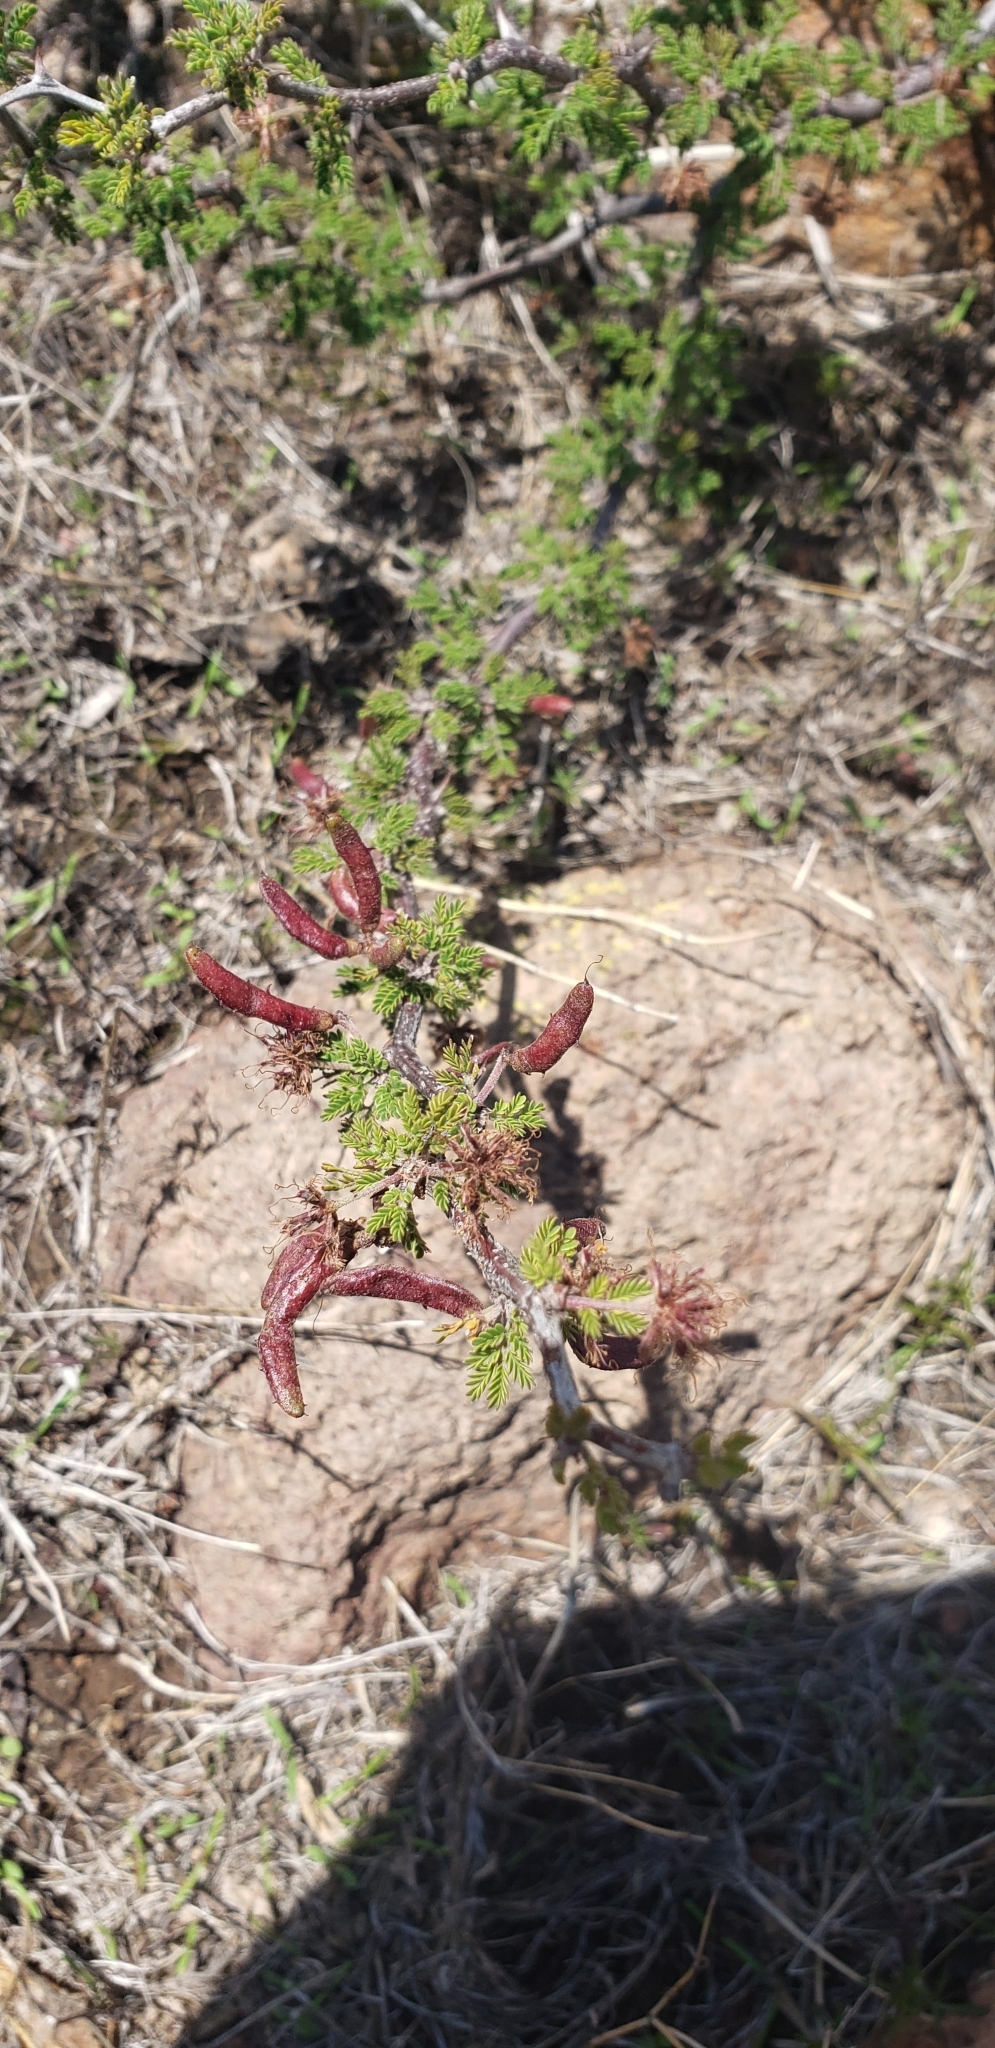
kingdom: Plantae
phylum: Tracheophyta
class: Magnoliopsida
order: Fabales
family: Fabaceae
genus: Mimosa
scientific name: Mimosa aculeaticarpa
